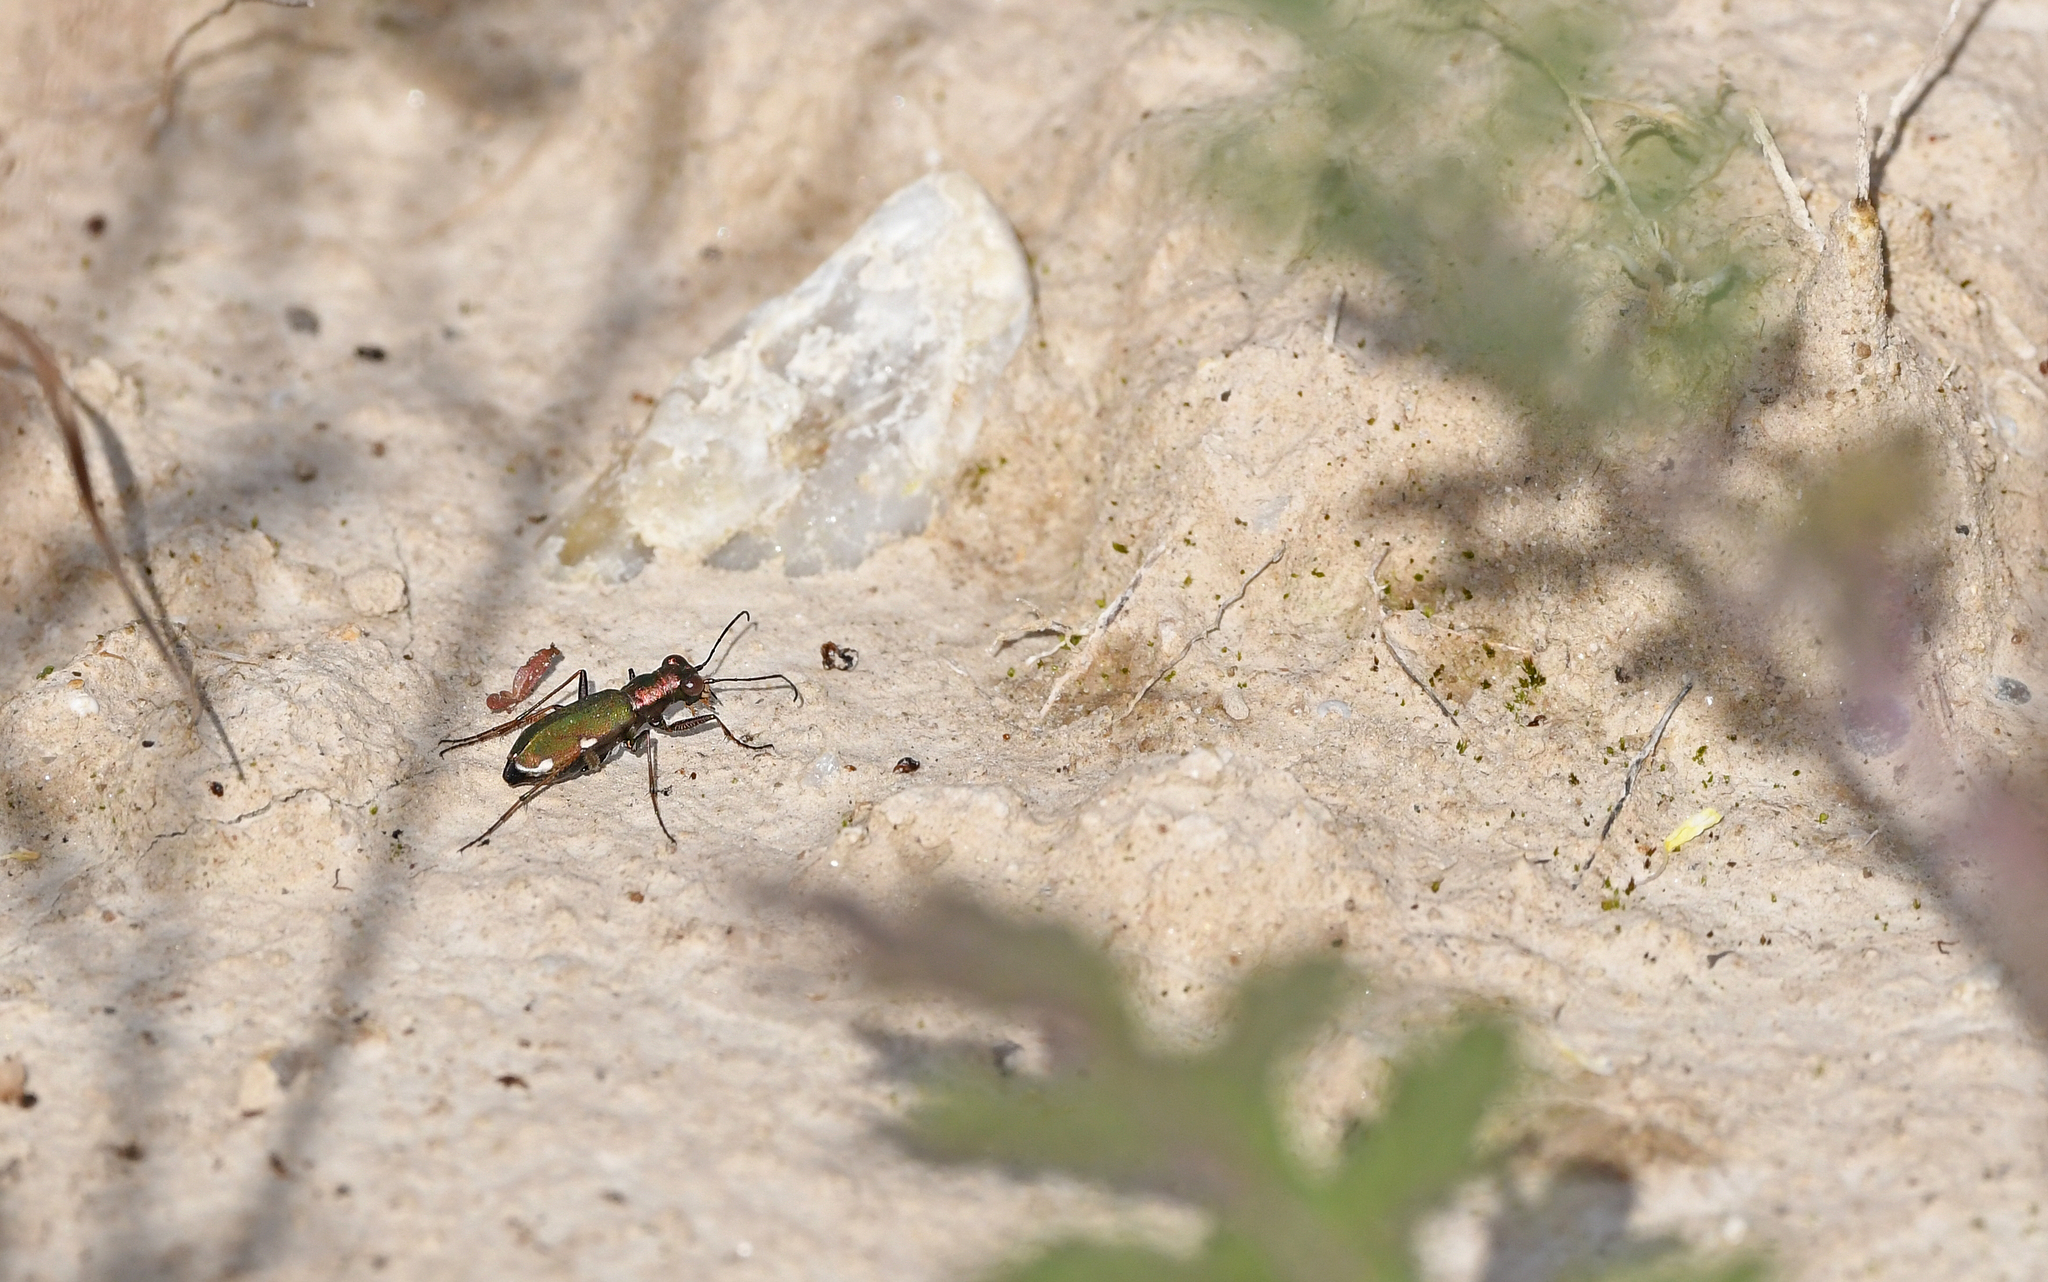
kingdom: Animalia
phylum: Arthropoda
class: Insecta
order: Coleoptera
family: Carabidae
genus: Cylindera
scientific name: Cylindera germanica
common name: Cliff tiger beetle
